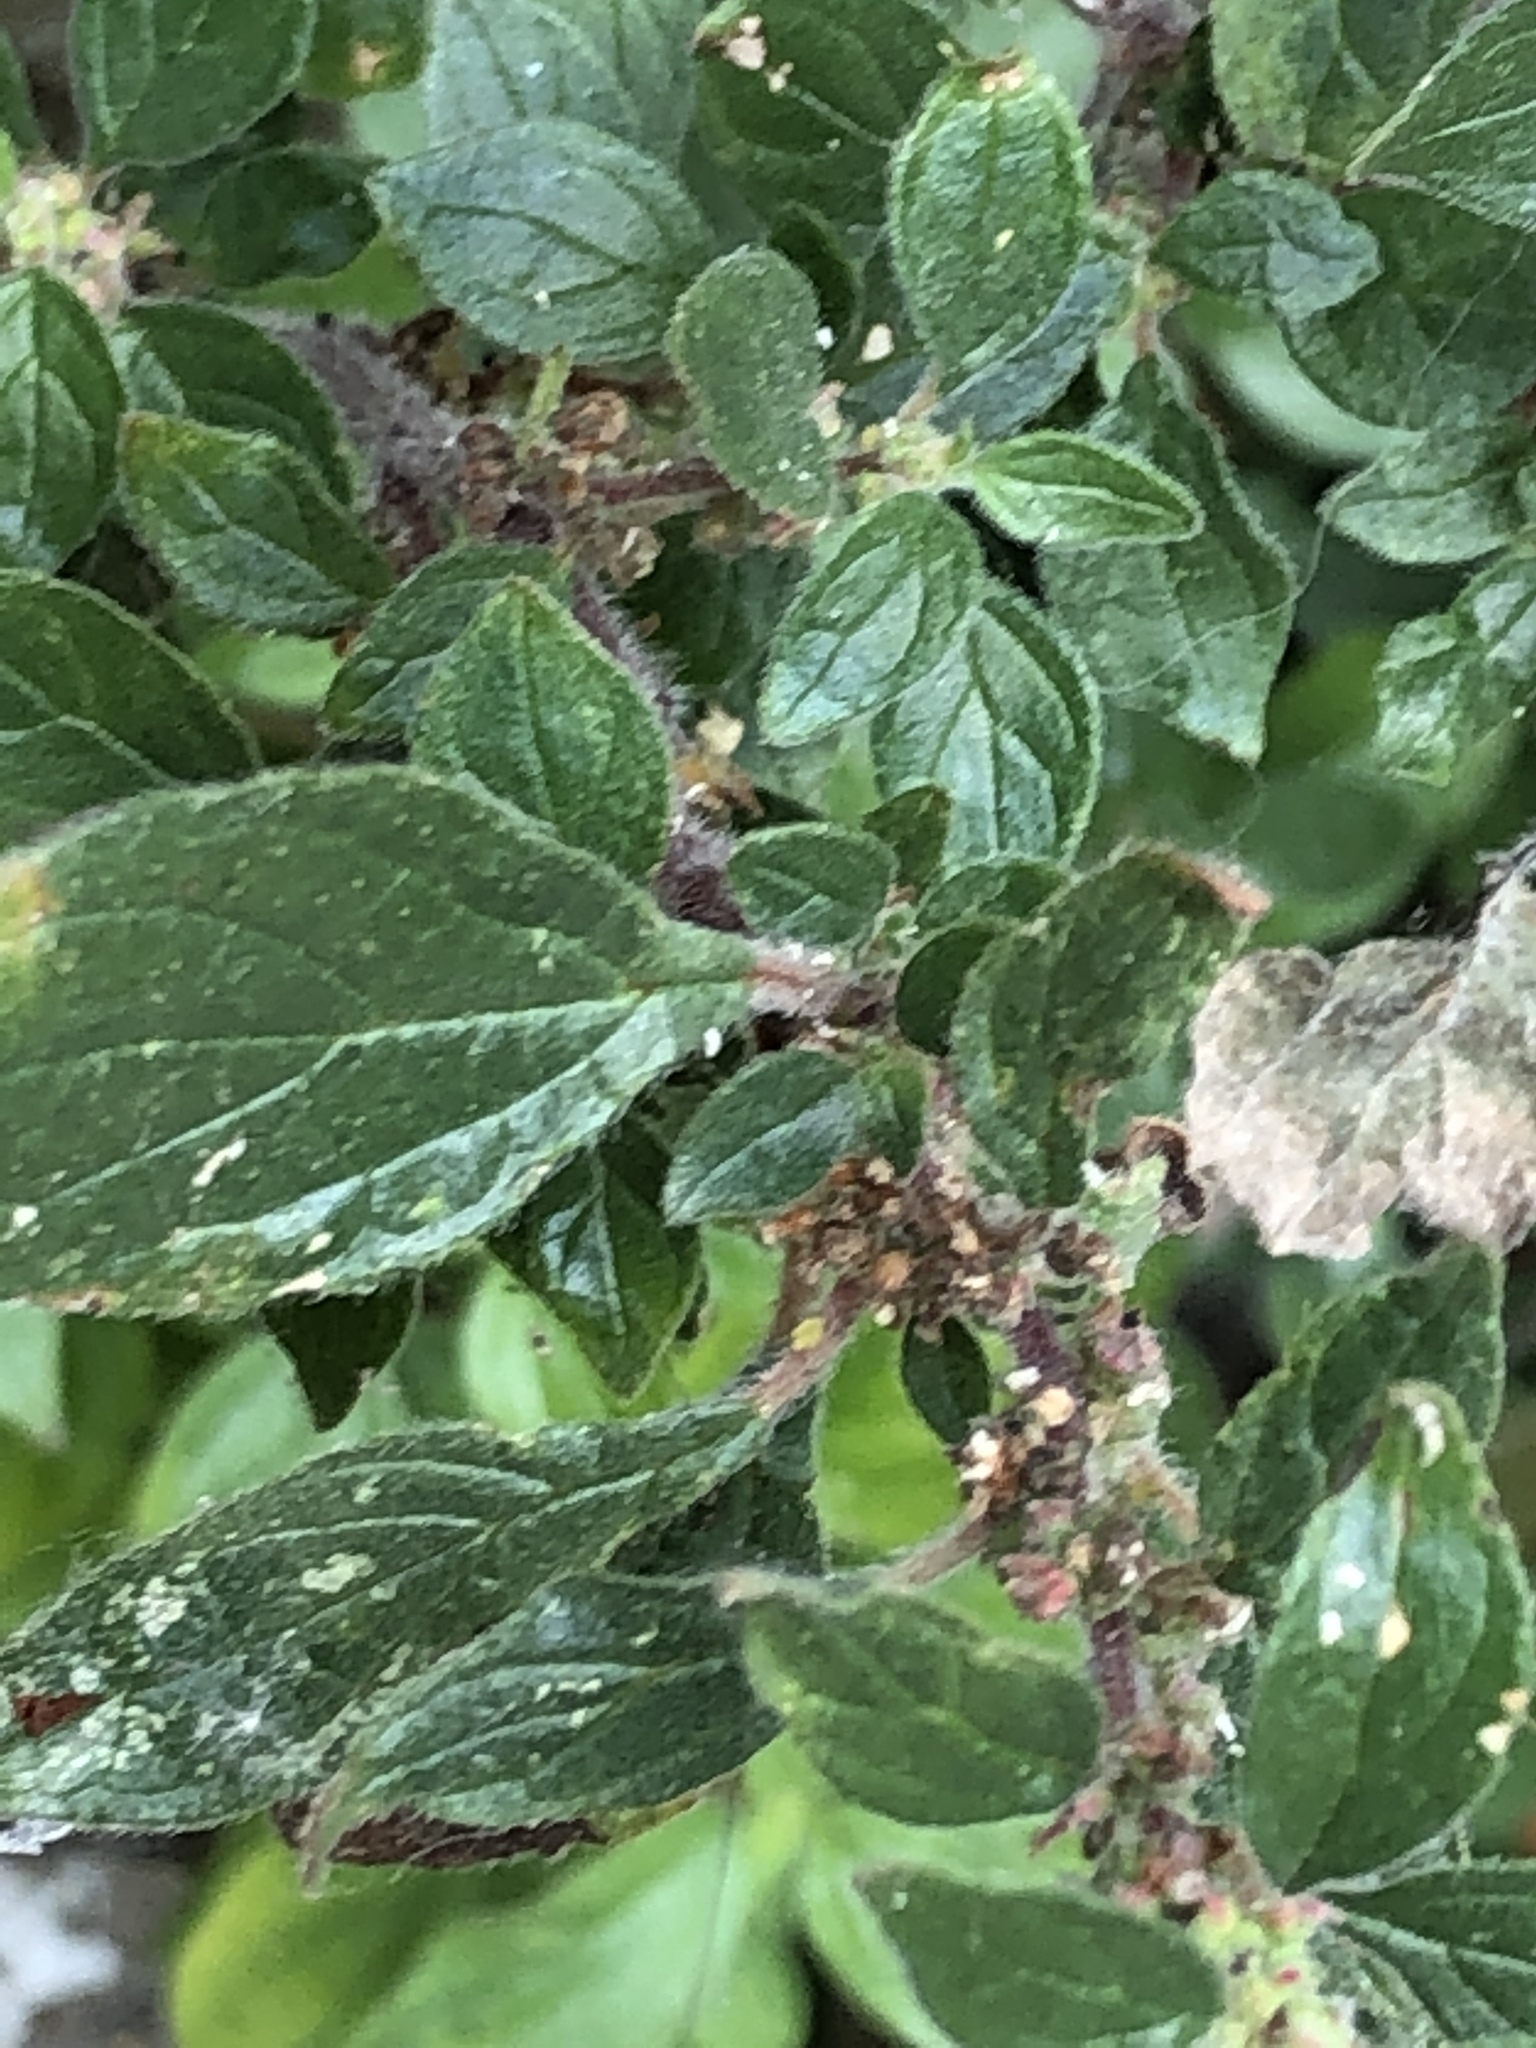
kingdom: Plantae
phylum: Tracheophyta
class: Magnoliopsida
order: Rosales
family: Urticaceae
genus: Parietaria
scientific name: Parietaria judaica
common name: Pellitory-of-the-wall
